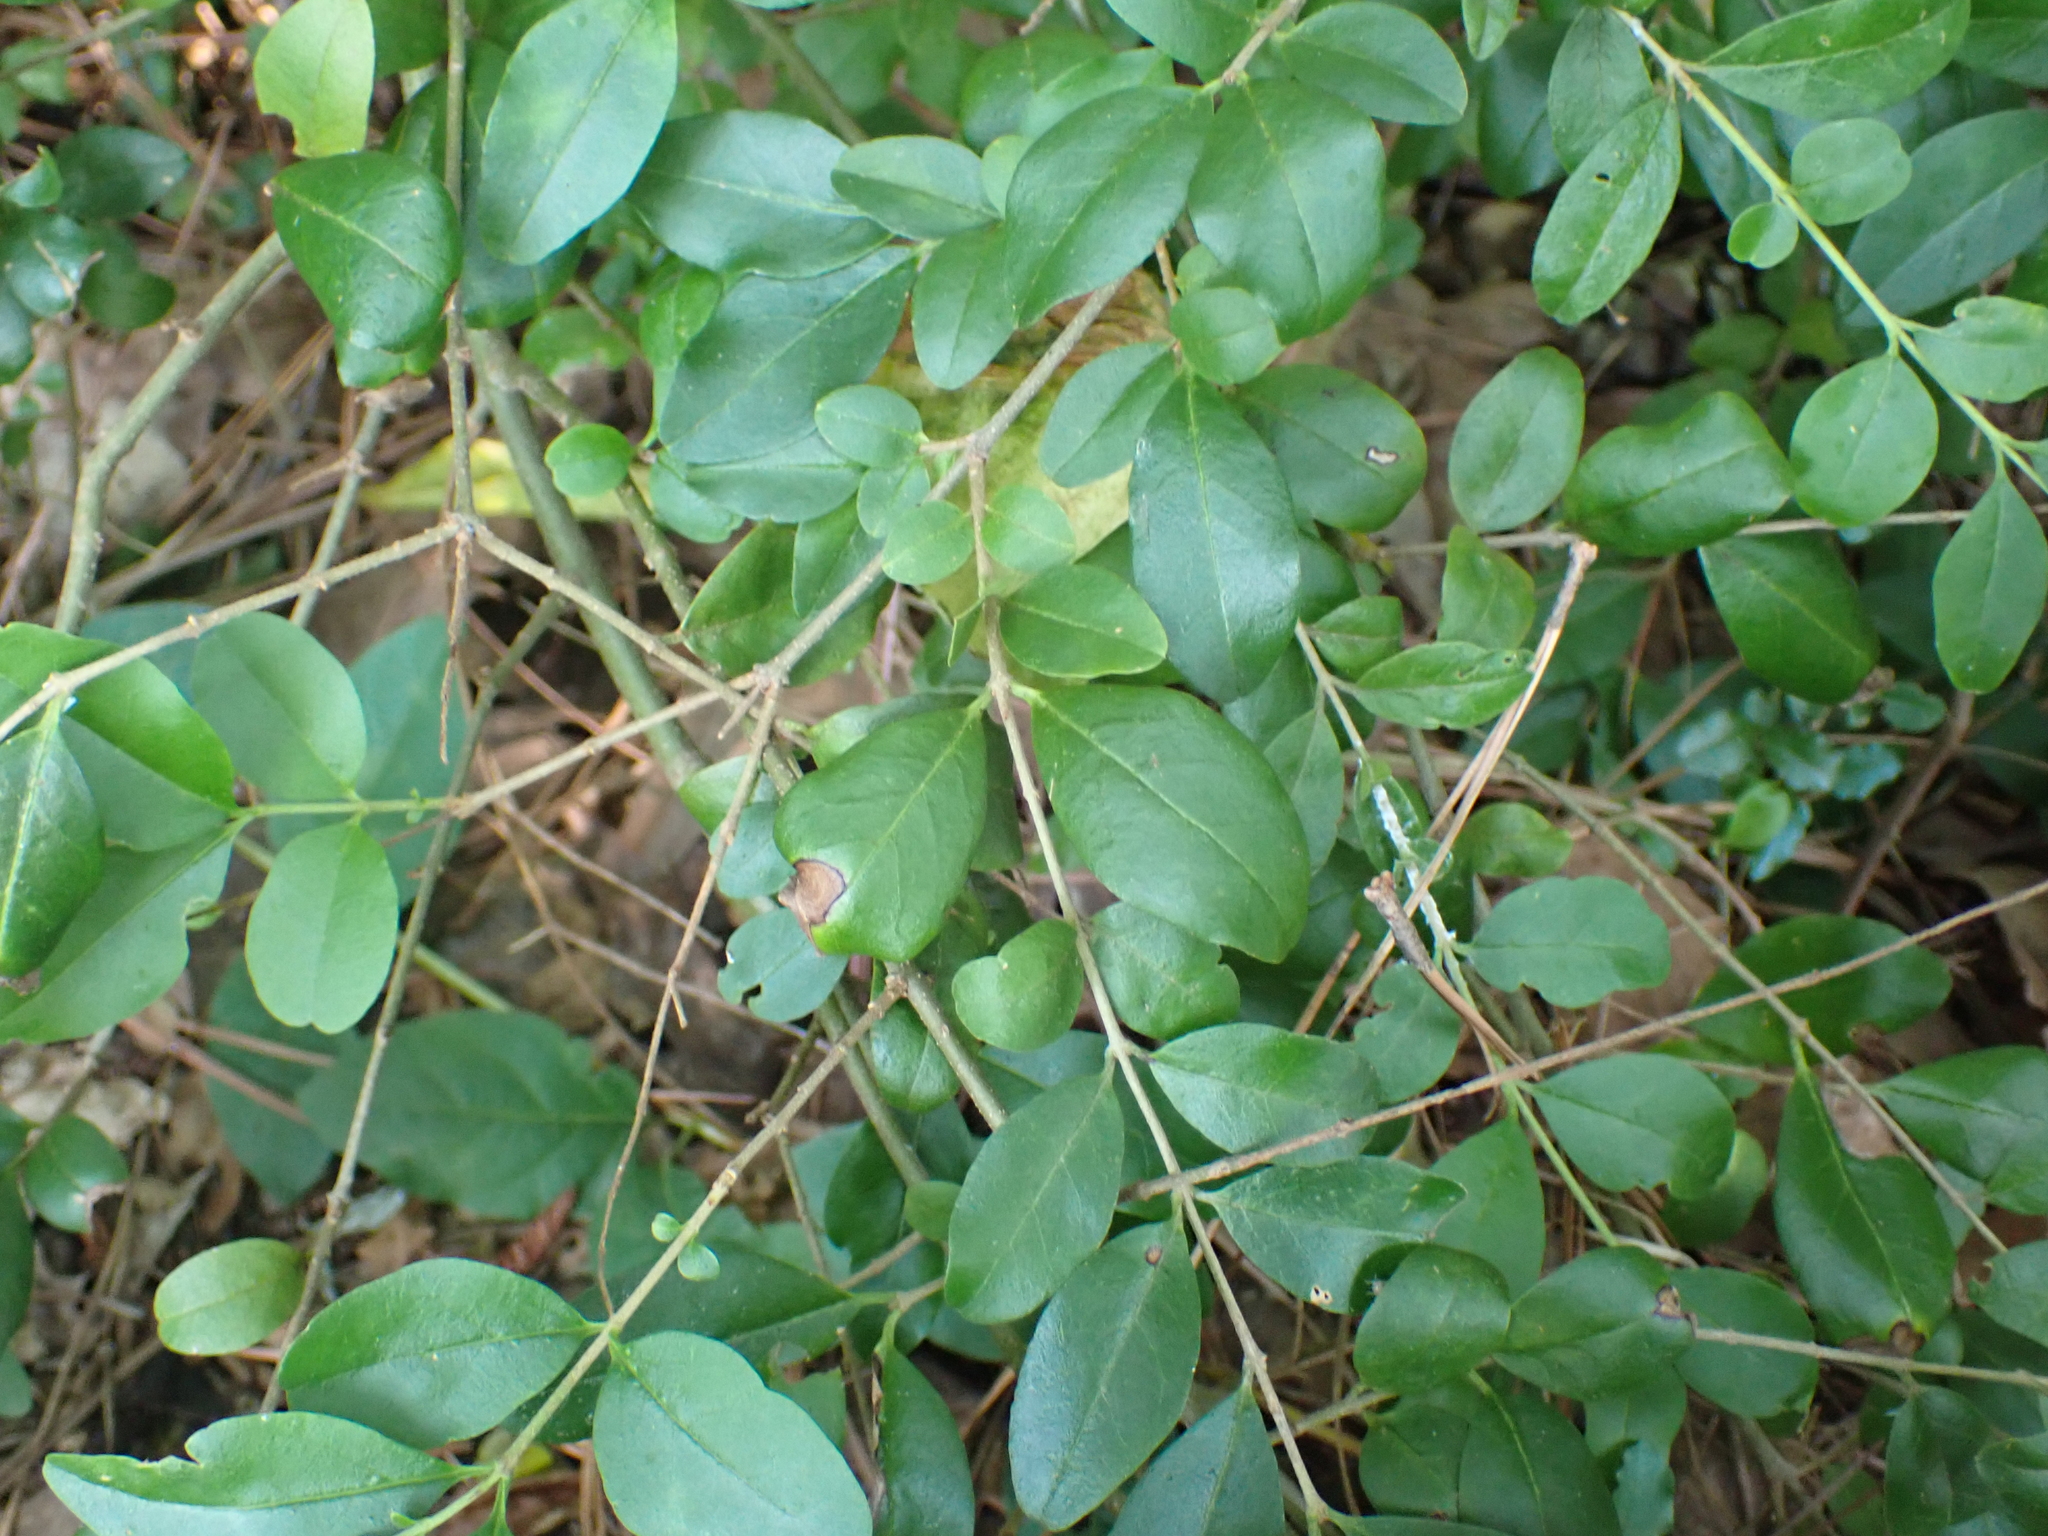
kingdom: Plantae
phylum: Tracheophyta
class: Magnoliopsida
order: Lamiales
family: Oleaceae
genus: Ligustrum
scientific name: Ligustrum sinense
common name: Chinese privet
